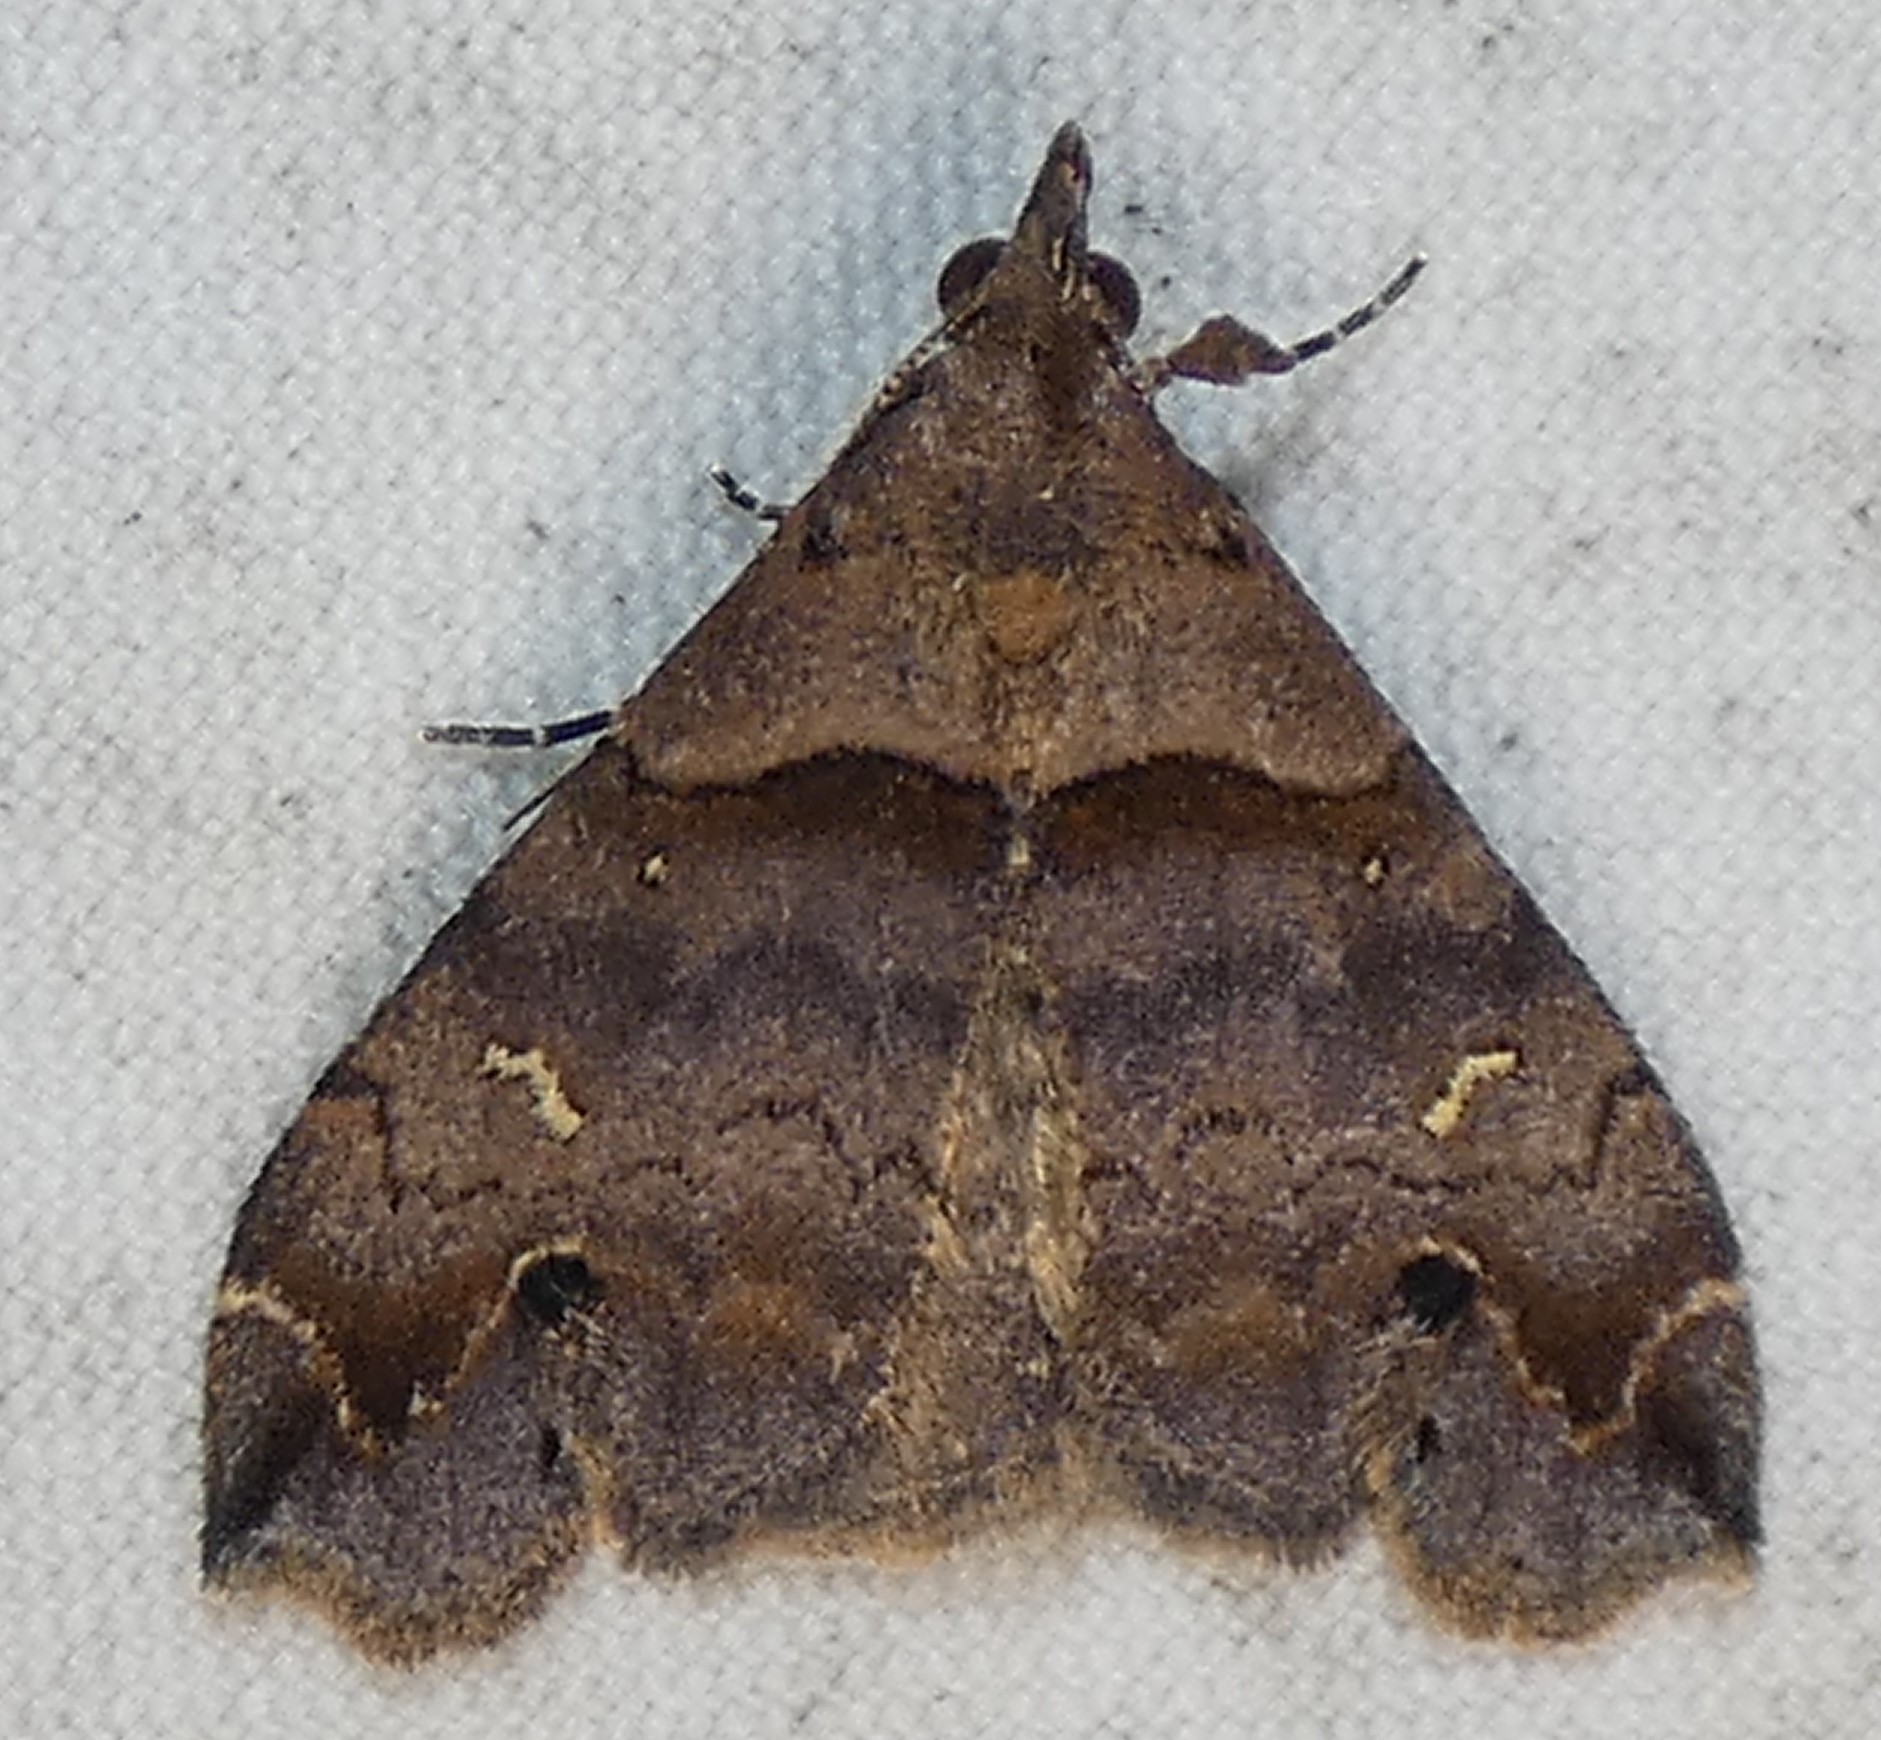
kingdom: Animalia
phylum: Arthropoda
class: Insecta
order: Lepidoptera
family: Erebidae
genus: Lascoria
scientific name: Lascoria ambigualis
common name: Ambiguous moth
